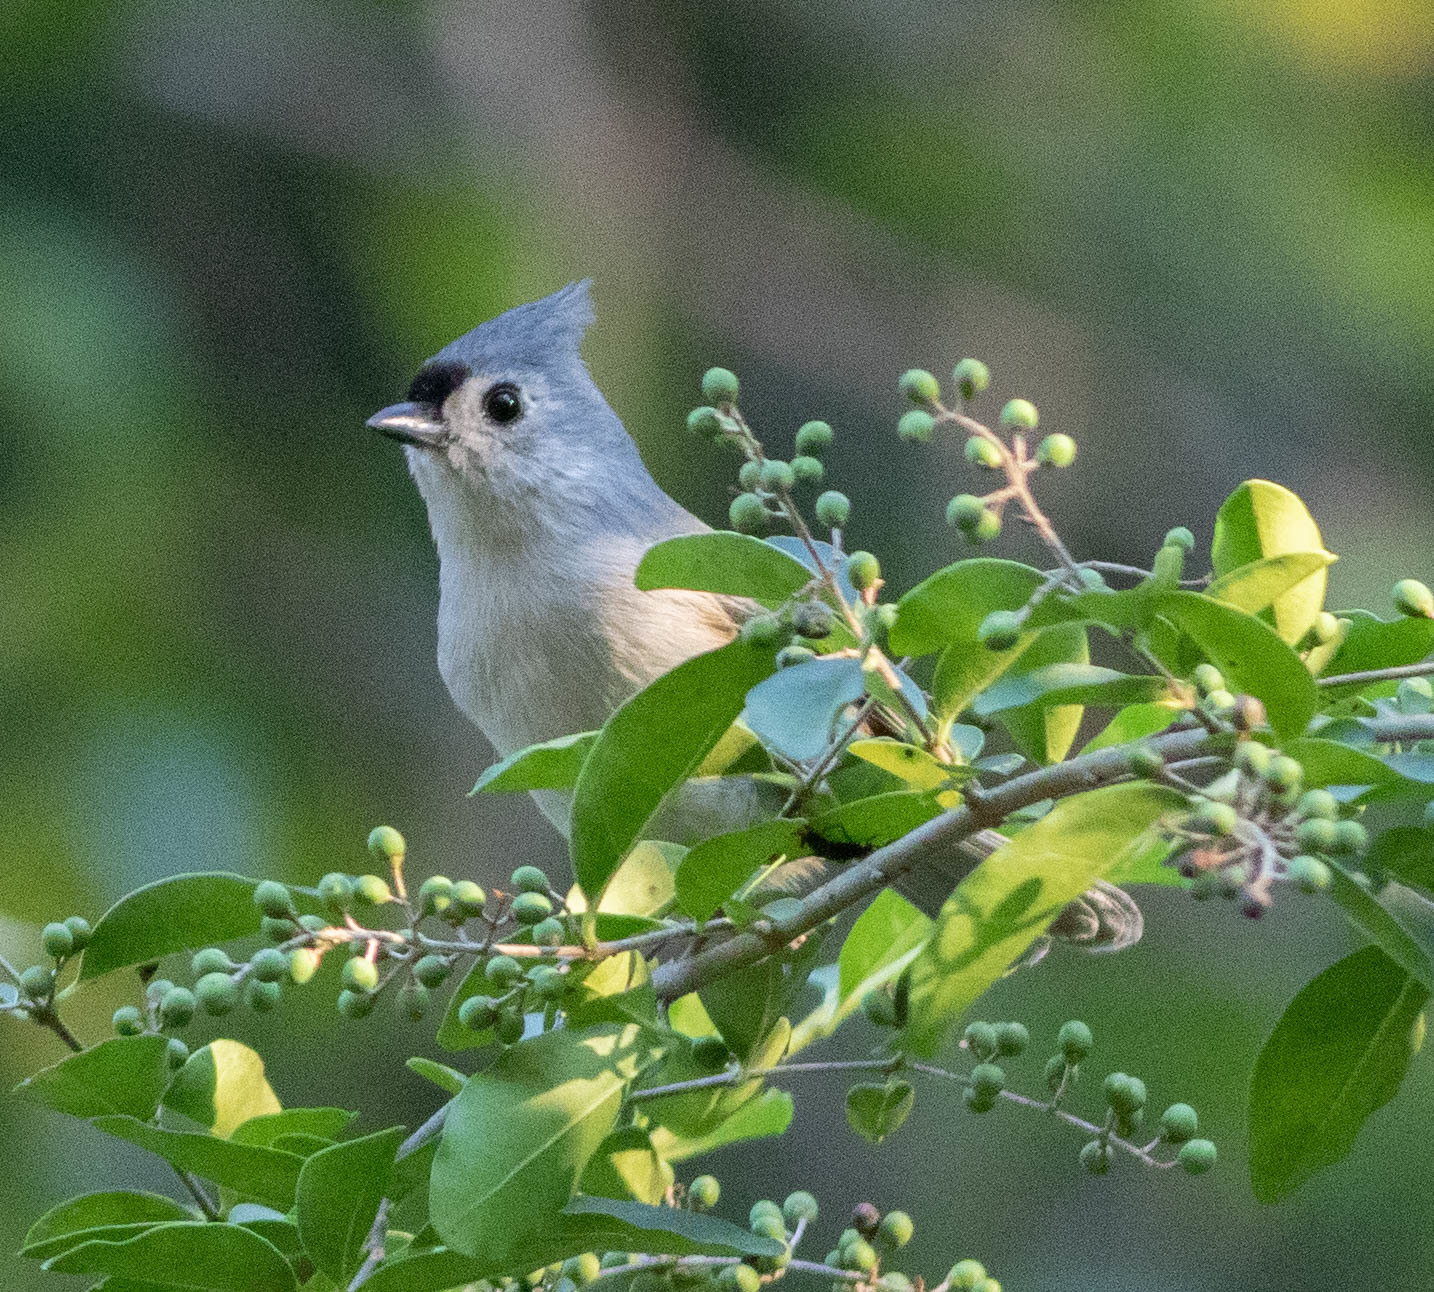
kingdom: Animalia
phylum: Chordata
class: Aves
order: Passeriformes
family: Paridae
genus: Baeolophus
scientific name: Baeolophus bicolor
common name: Tufted titmouse
